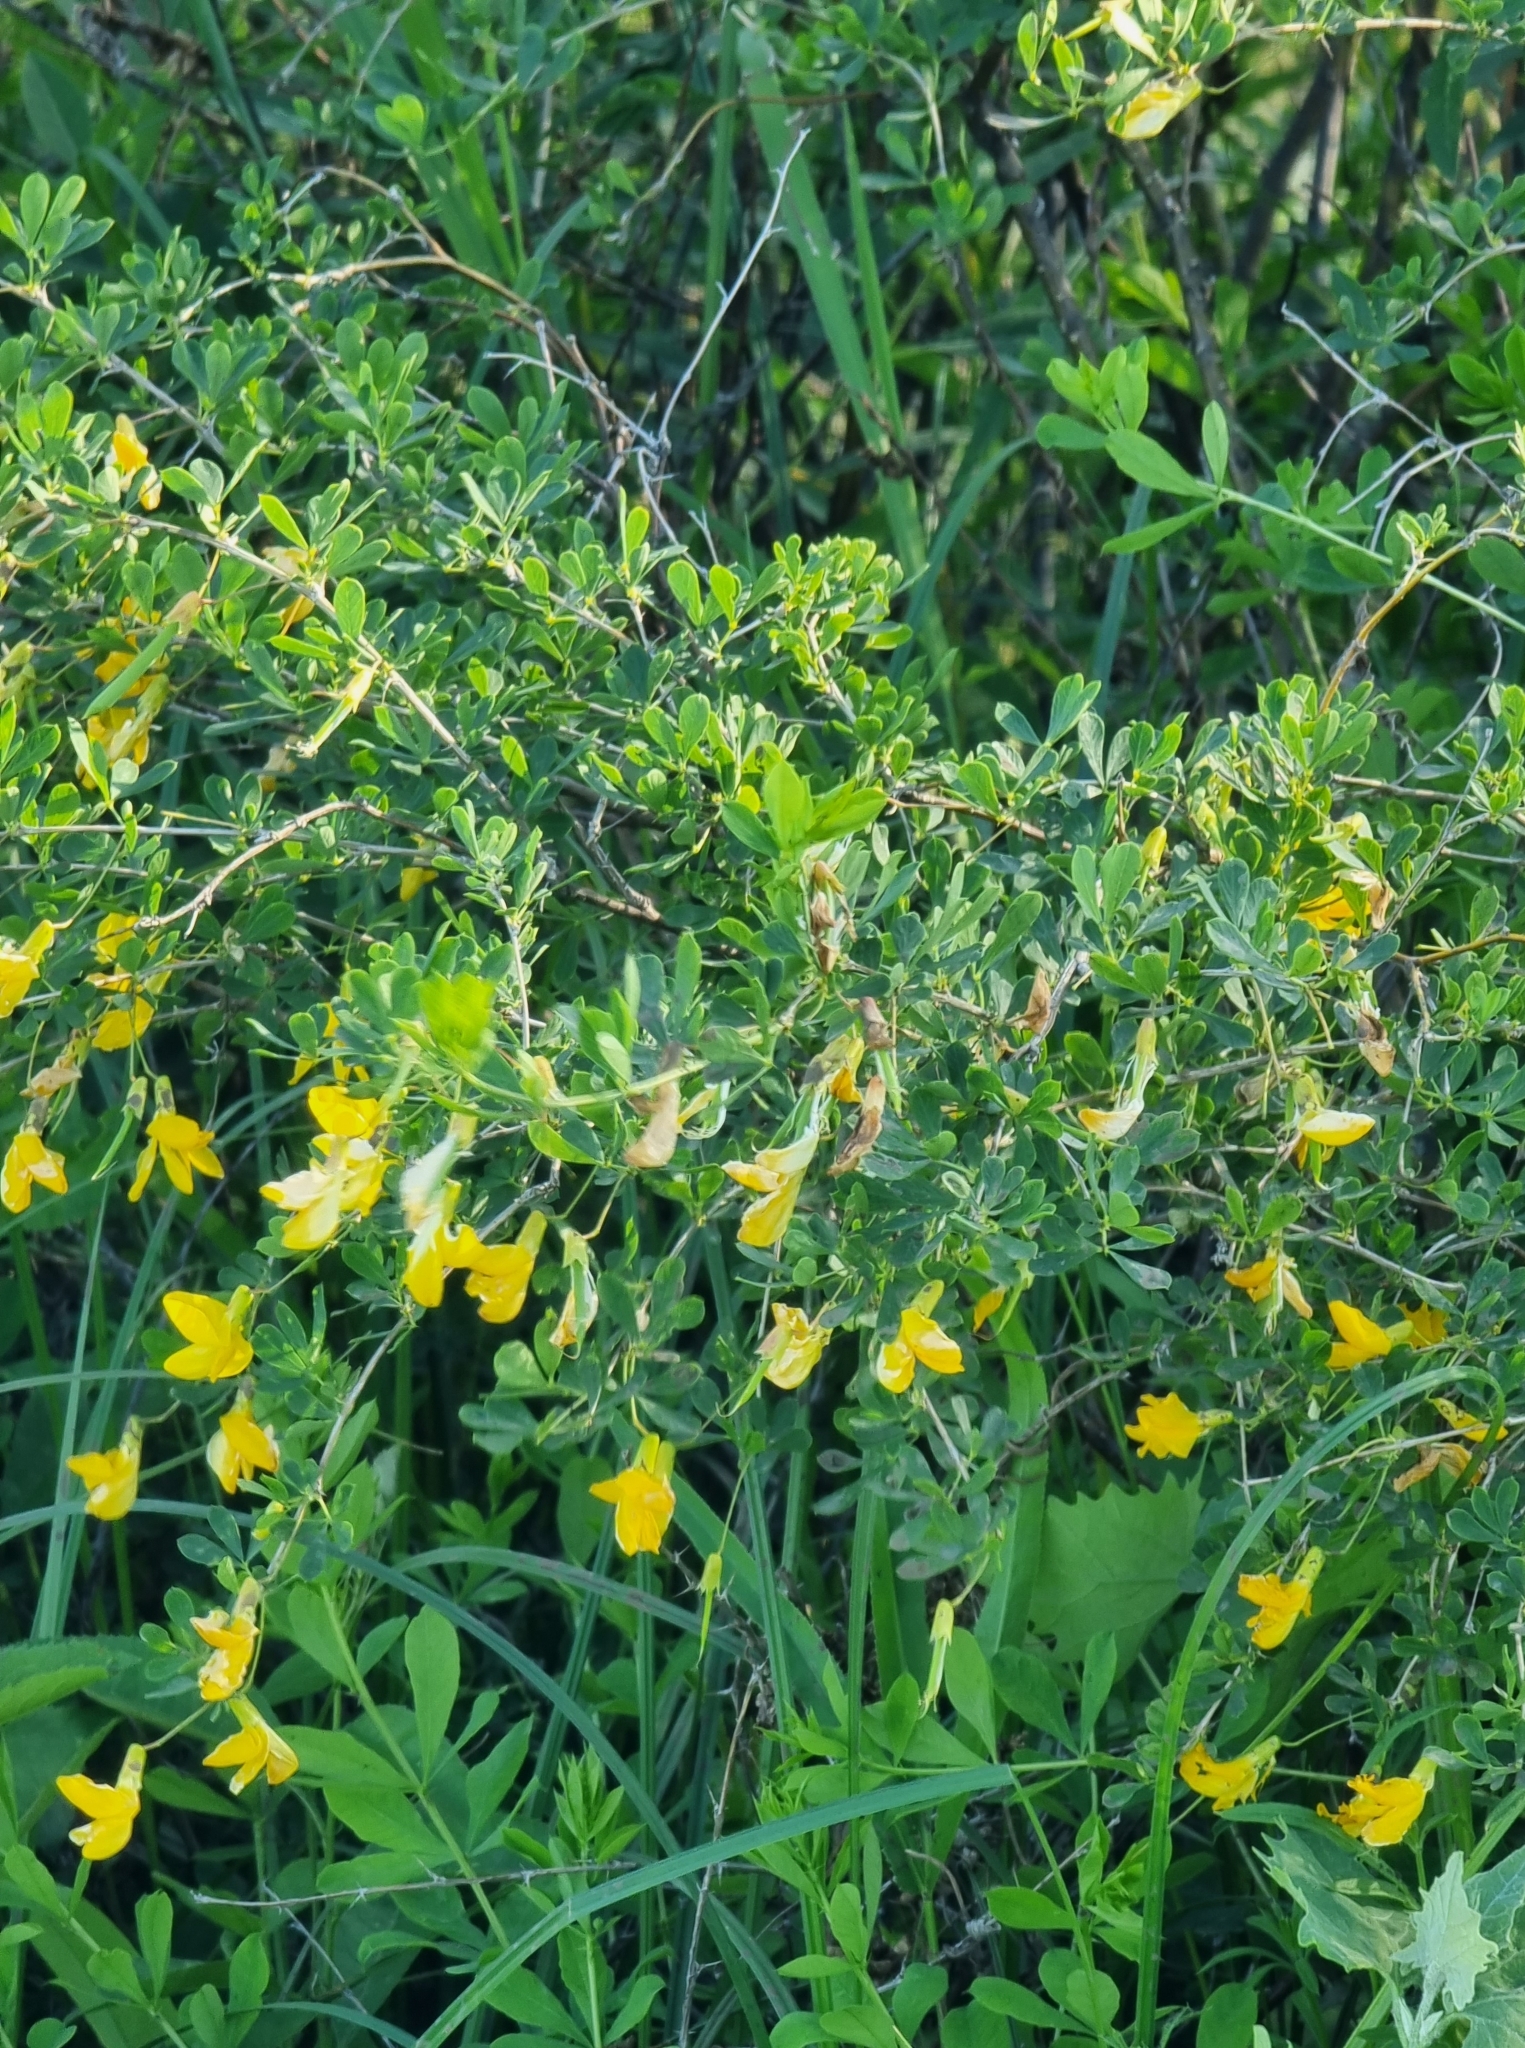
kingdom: Plantae
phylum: Tracheophyta
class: Magnoliopsida
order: Fabales
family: Fabaceae
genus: Caragana
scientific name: Caragana frutex
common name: Russian peashrub
